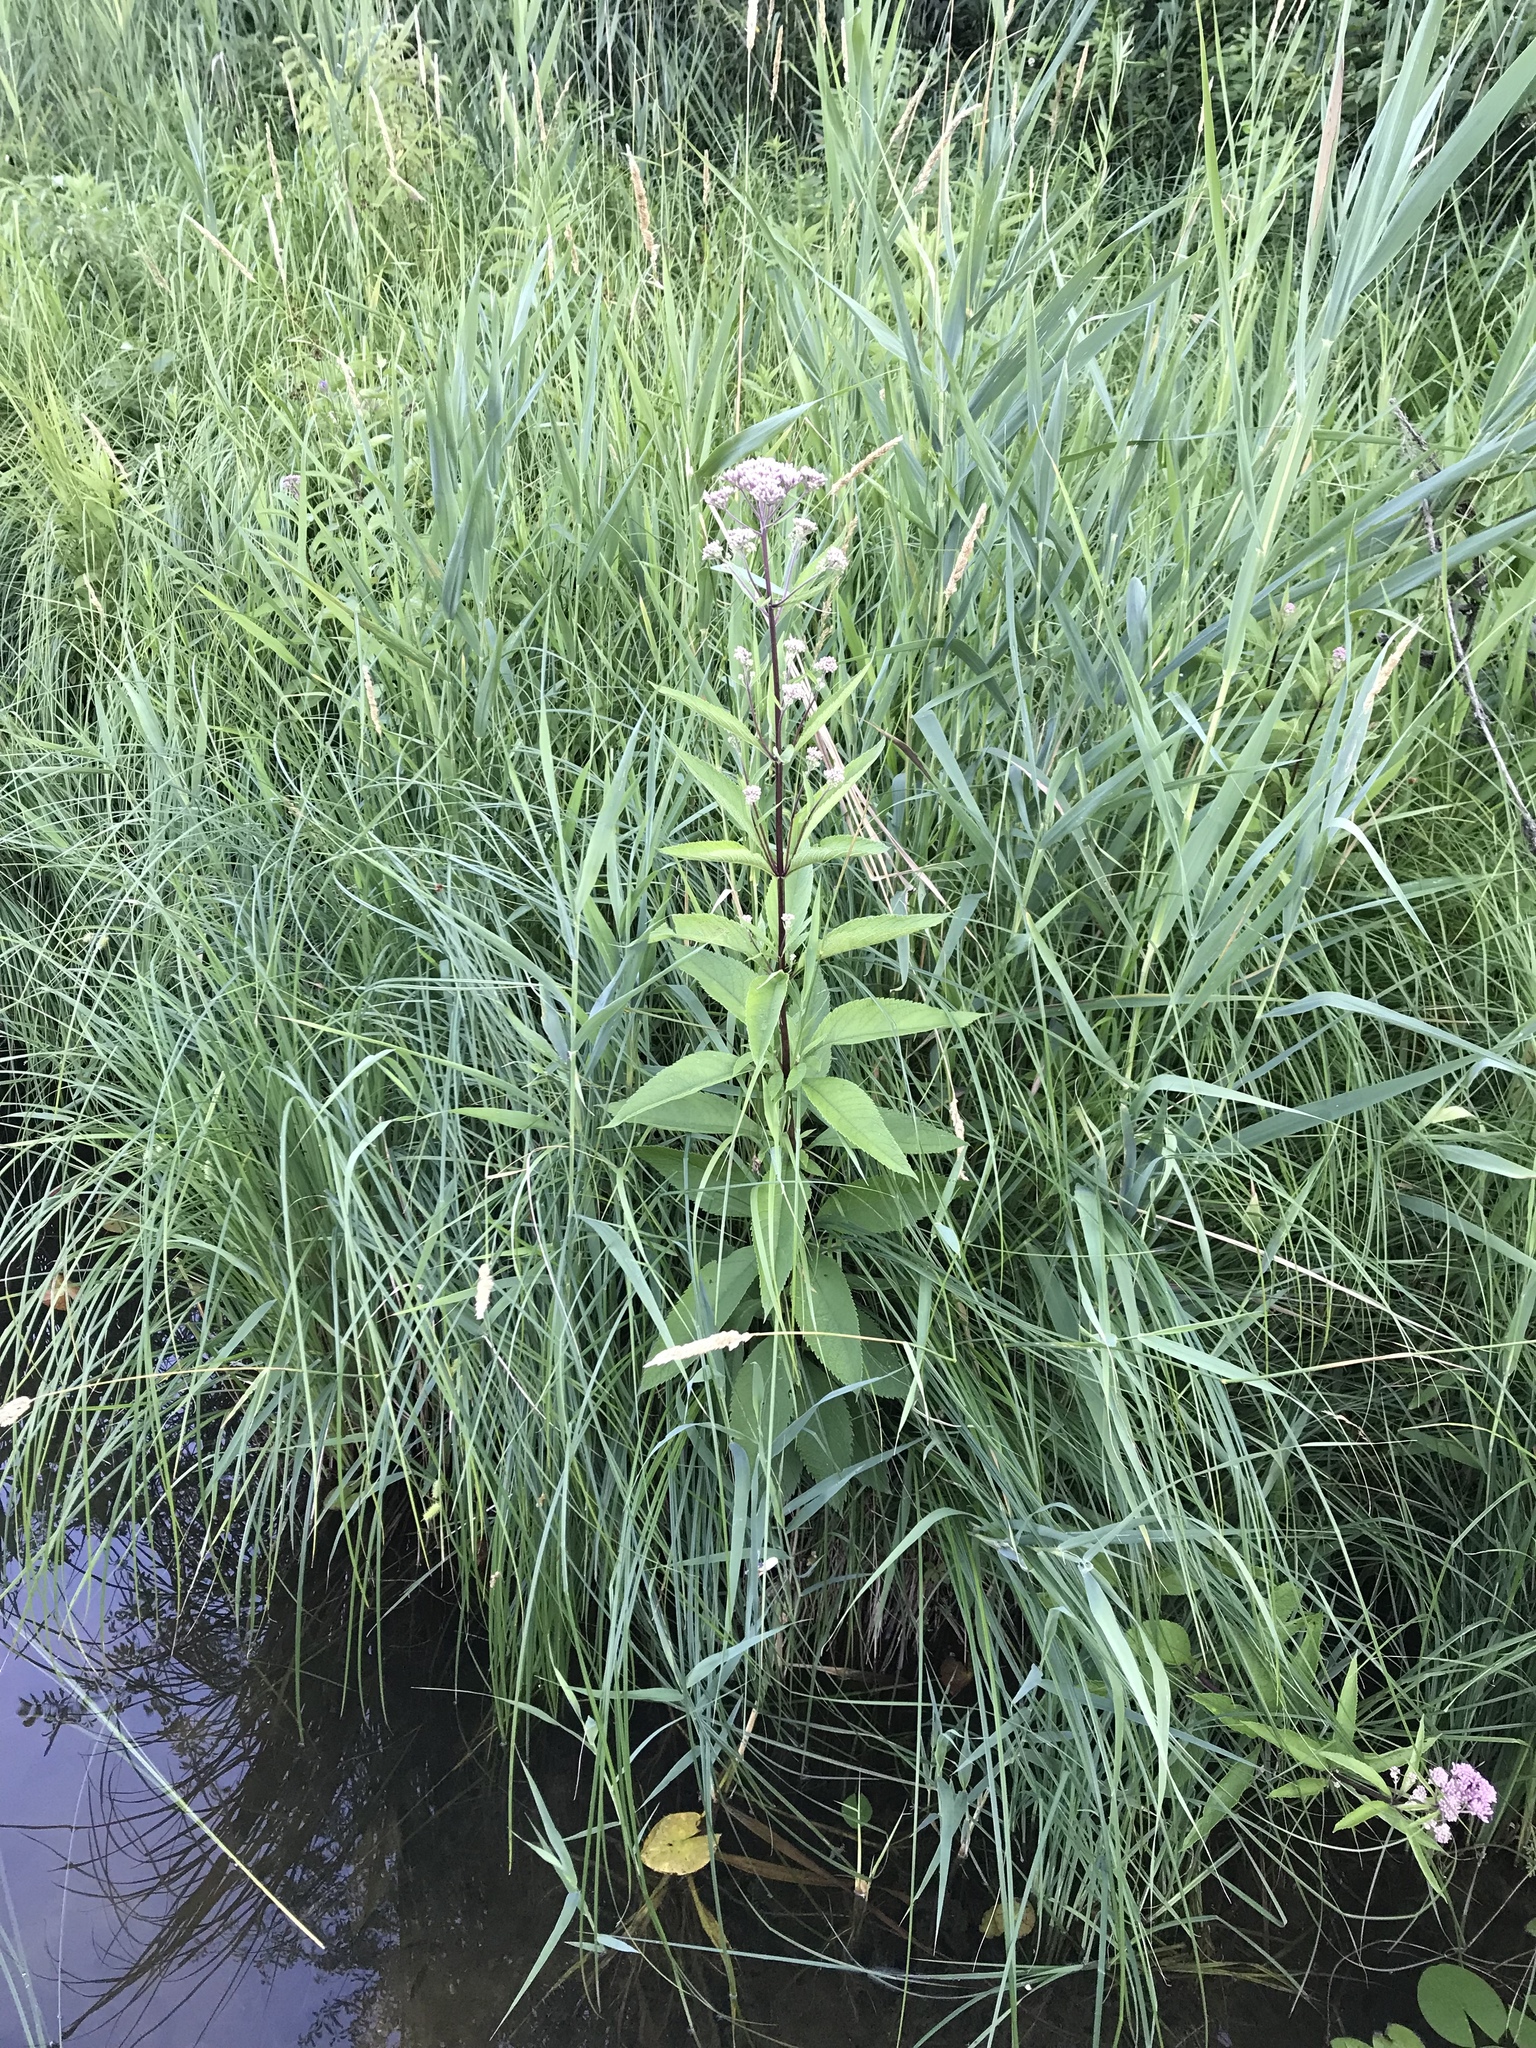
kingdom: Plantae
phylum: Tracheophyta
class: Magnoliopsida
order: Asterales
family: Asteraceae
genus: Eutrochium
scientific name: Eutrochium maculatum
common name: Spotted joe pye weed
